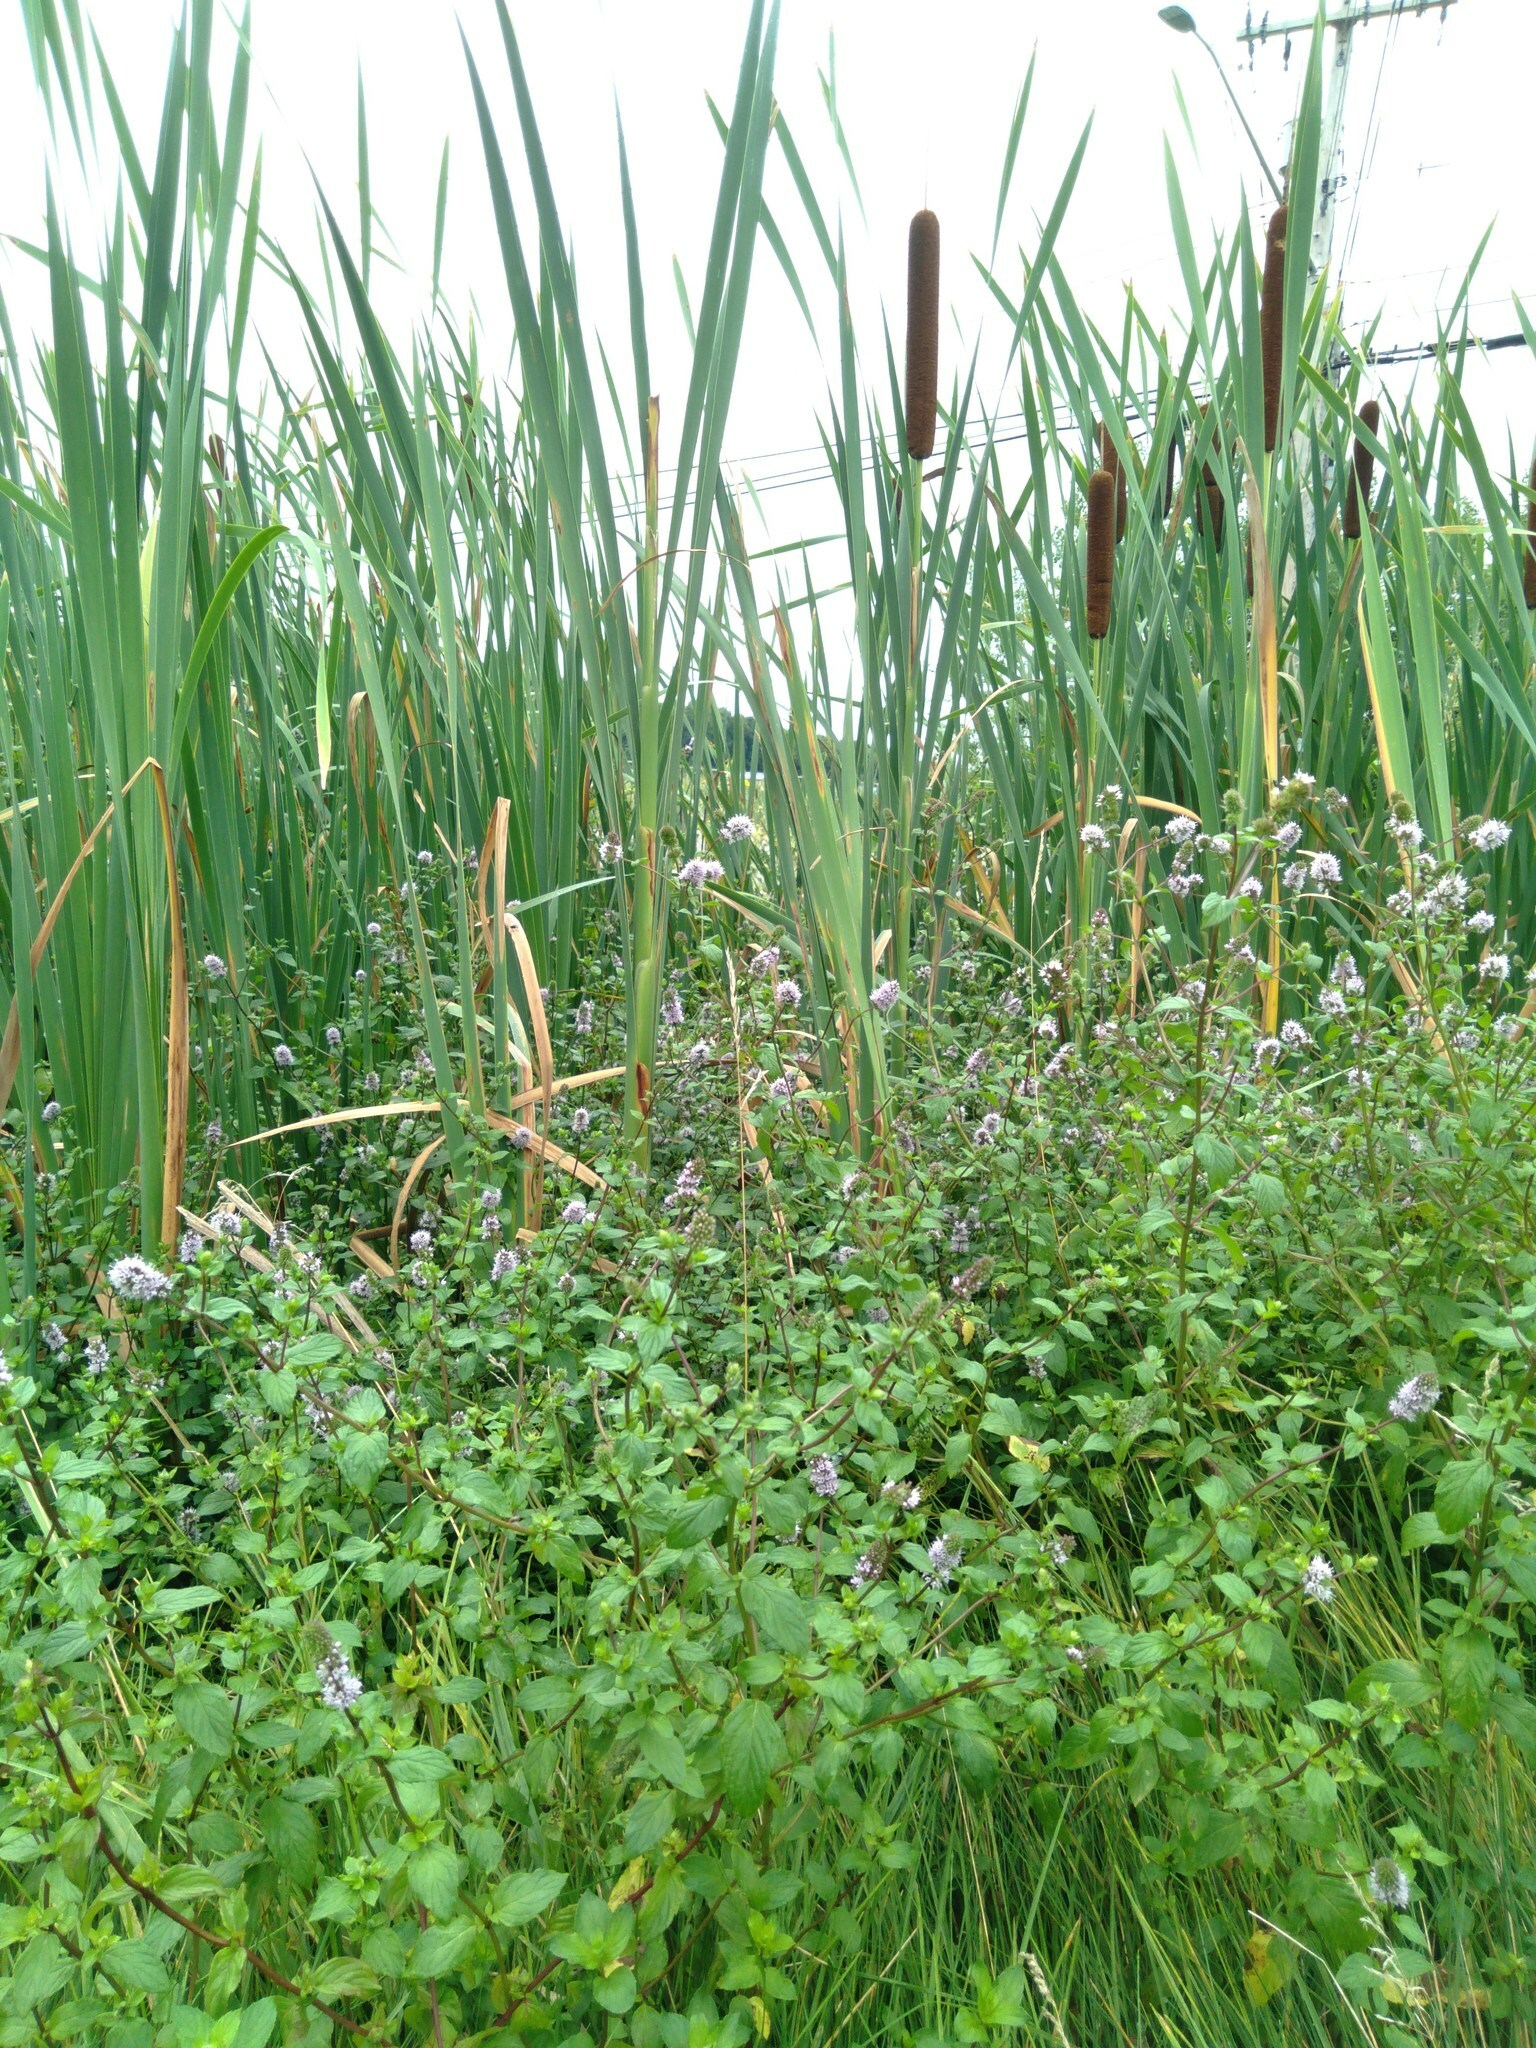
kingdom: Plantae
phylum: Tracheophyta
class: Liliopsida
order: Poales
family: Typhaceae
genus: Typha
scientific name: Typha latifolia
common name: Broadleaf cattail
